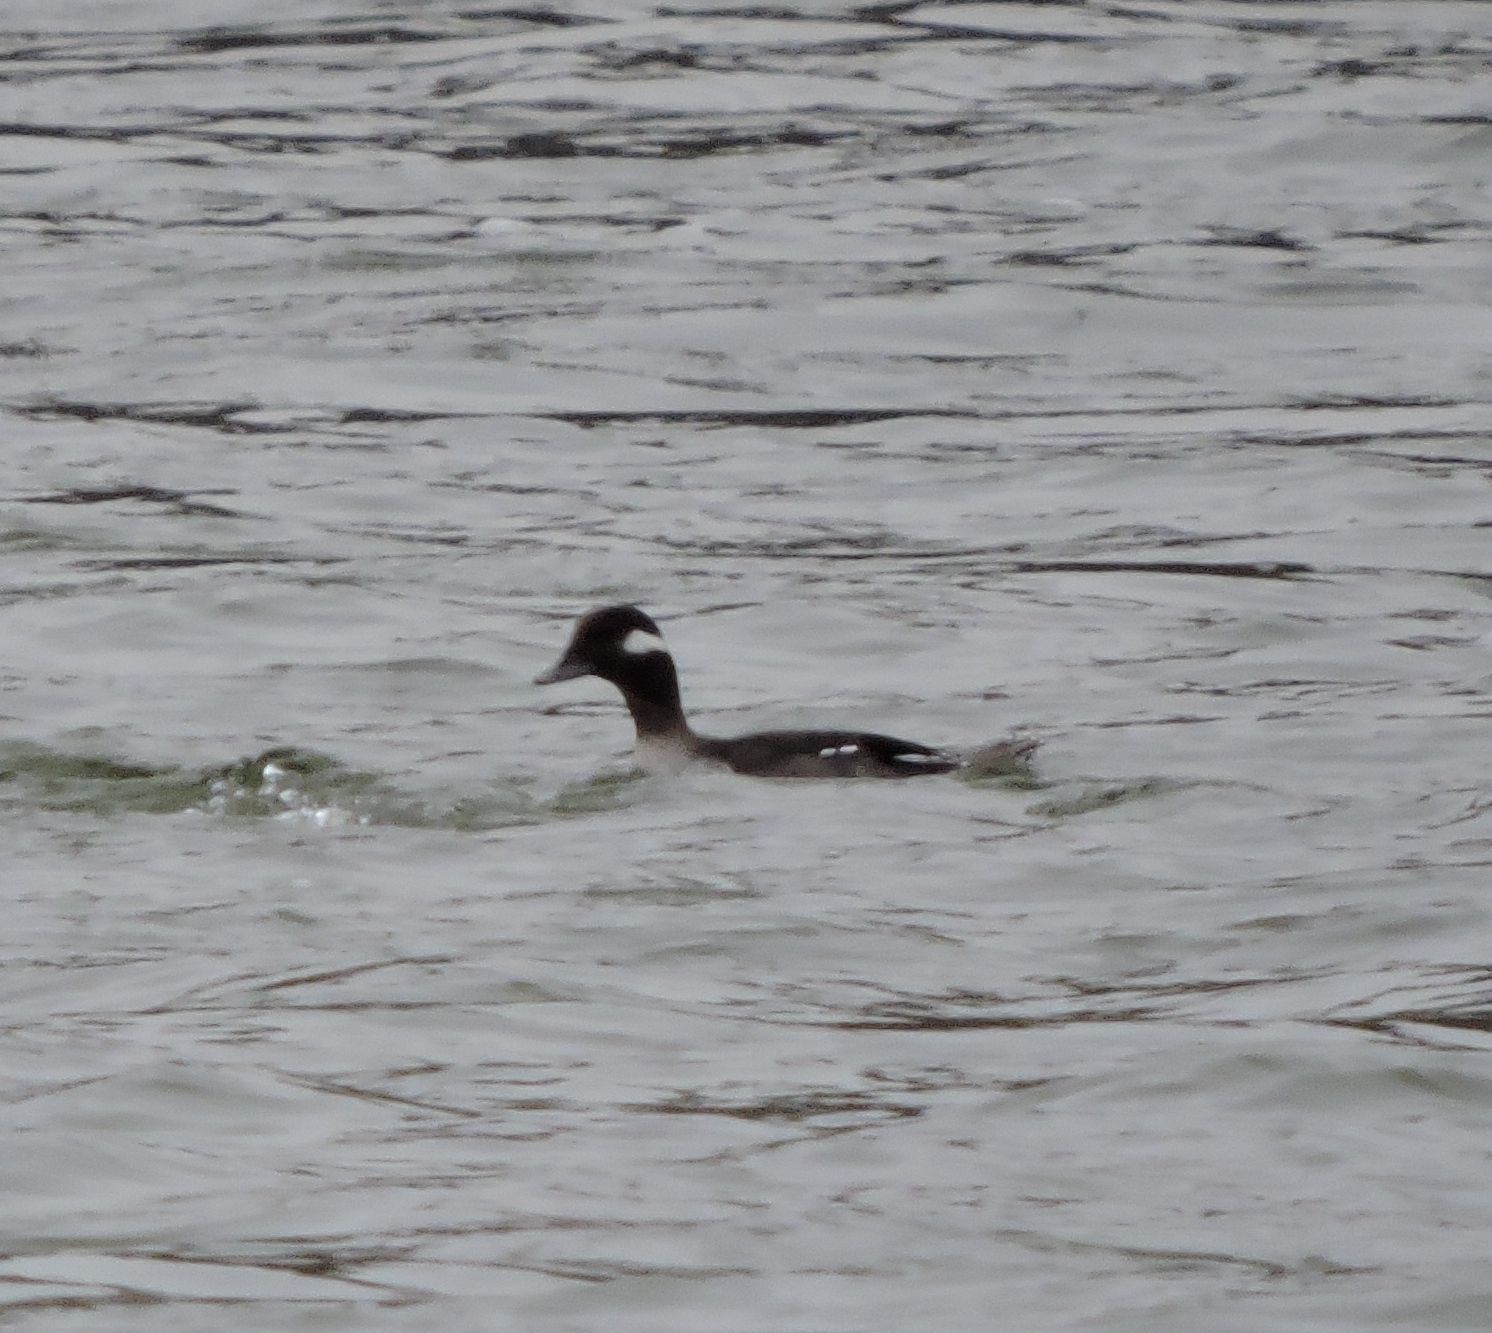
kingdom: Animalia
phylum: Chordata
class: Aves
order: Anseriformes
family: Anatidae
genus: Bucephala
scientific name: Bucephala albeola
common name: Bufflehead
